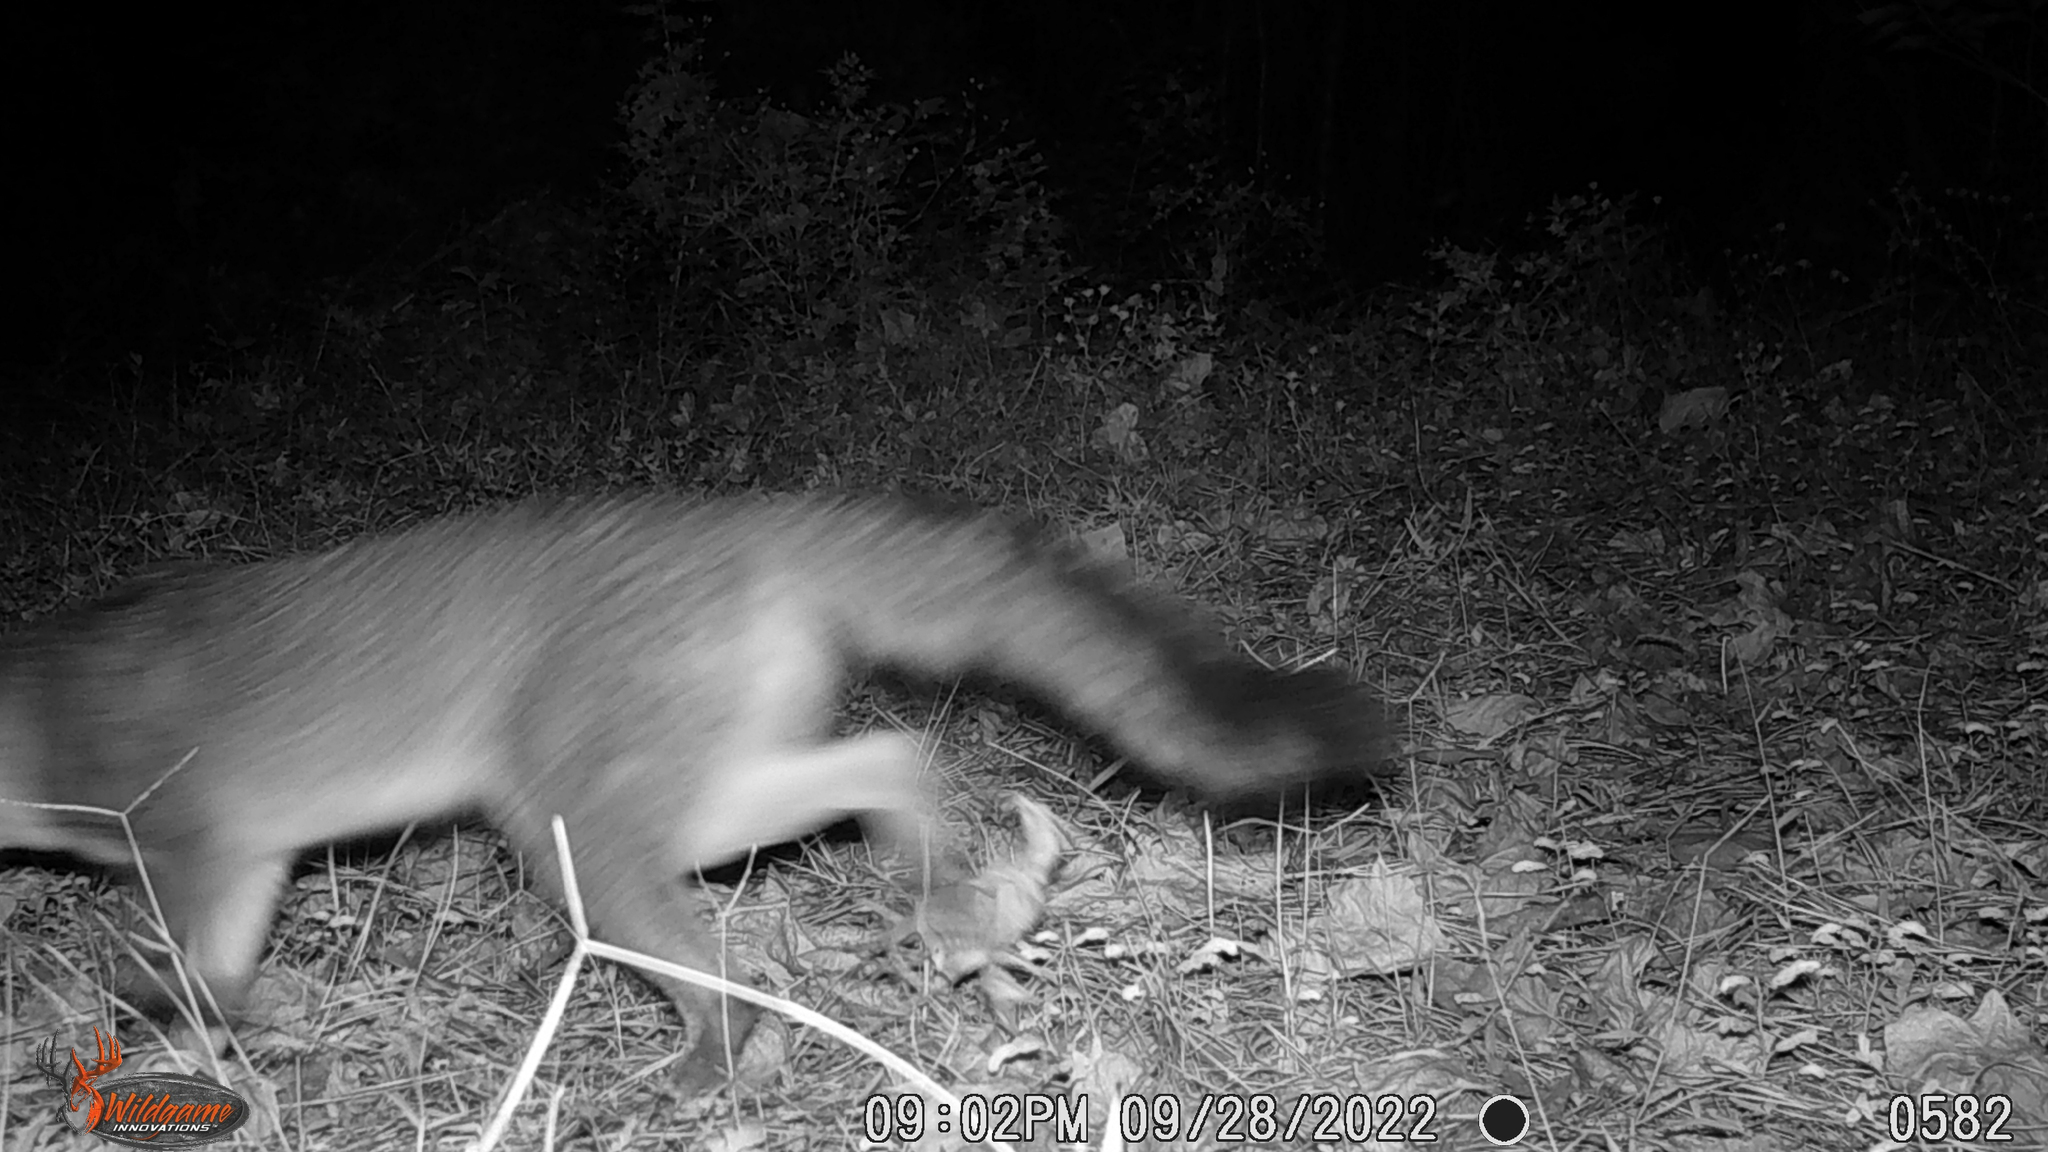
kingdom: Animalia
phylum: Chordata
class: Mammalia
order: Carnivora
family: Canidae
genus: Urocyon
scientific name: Urocyon cinereoargenteus
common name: Gray fox
